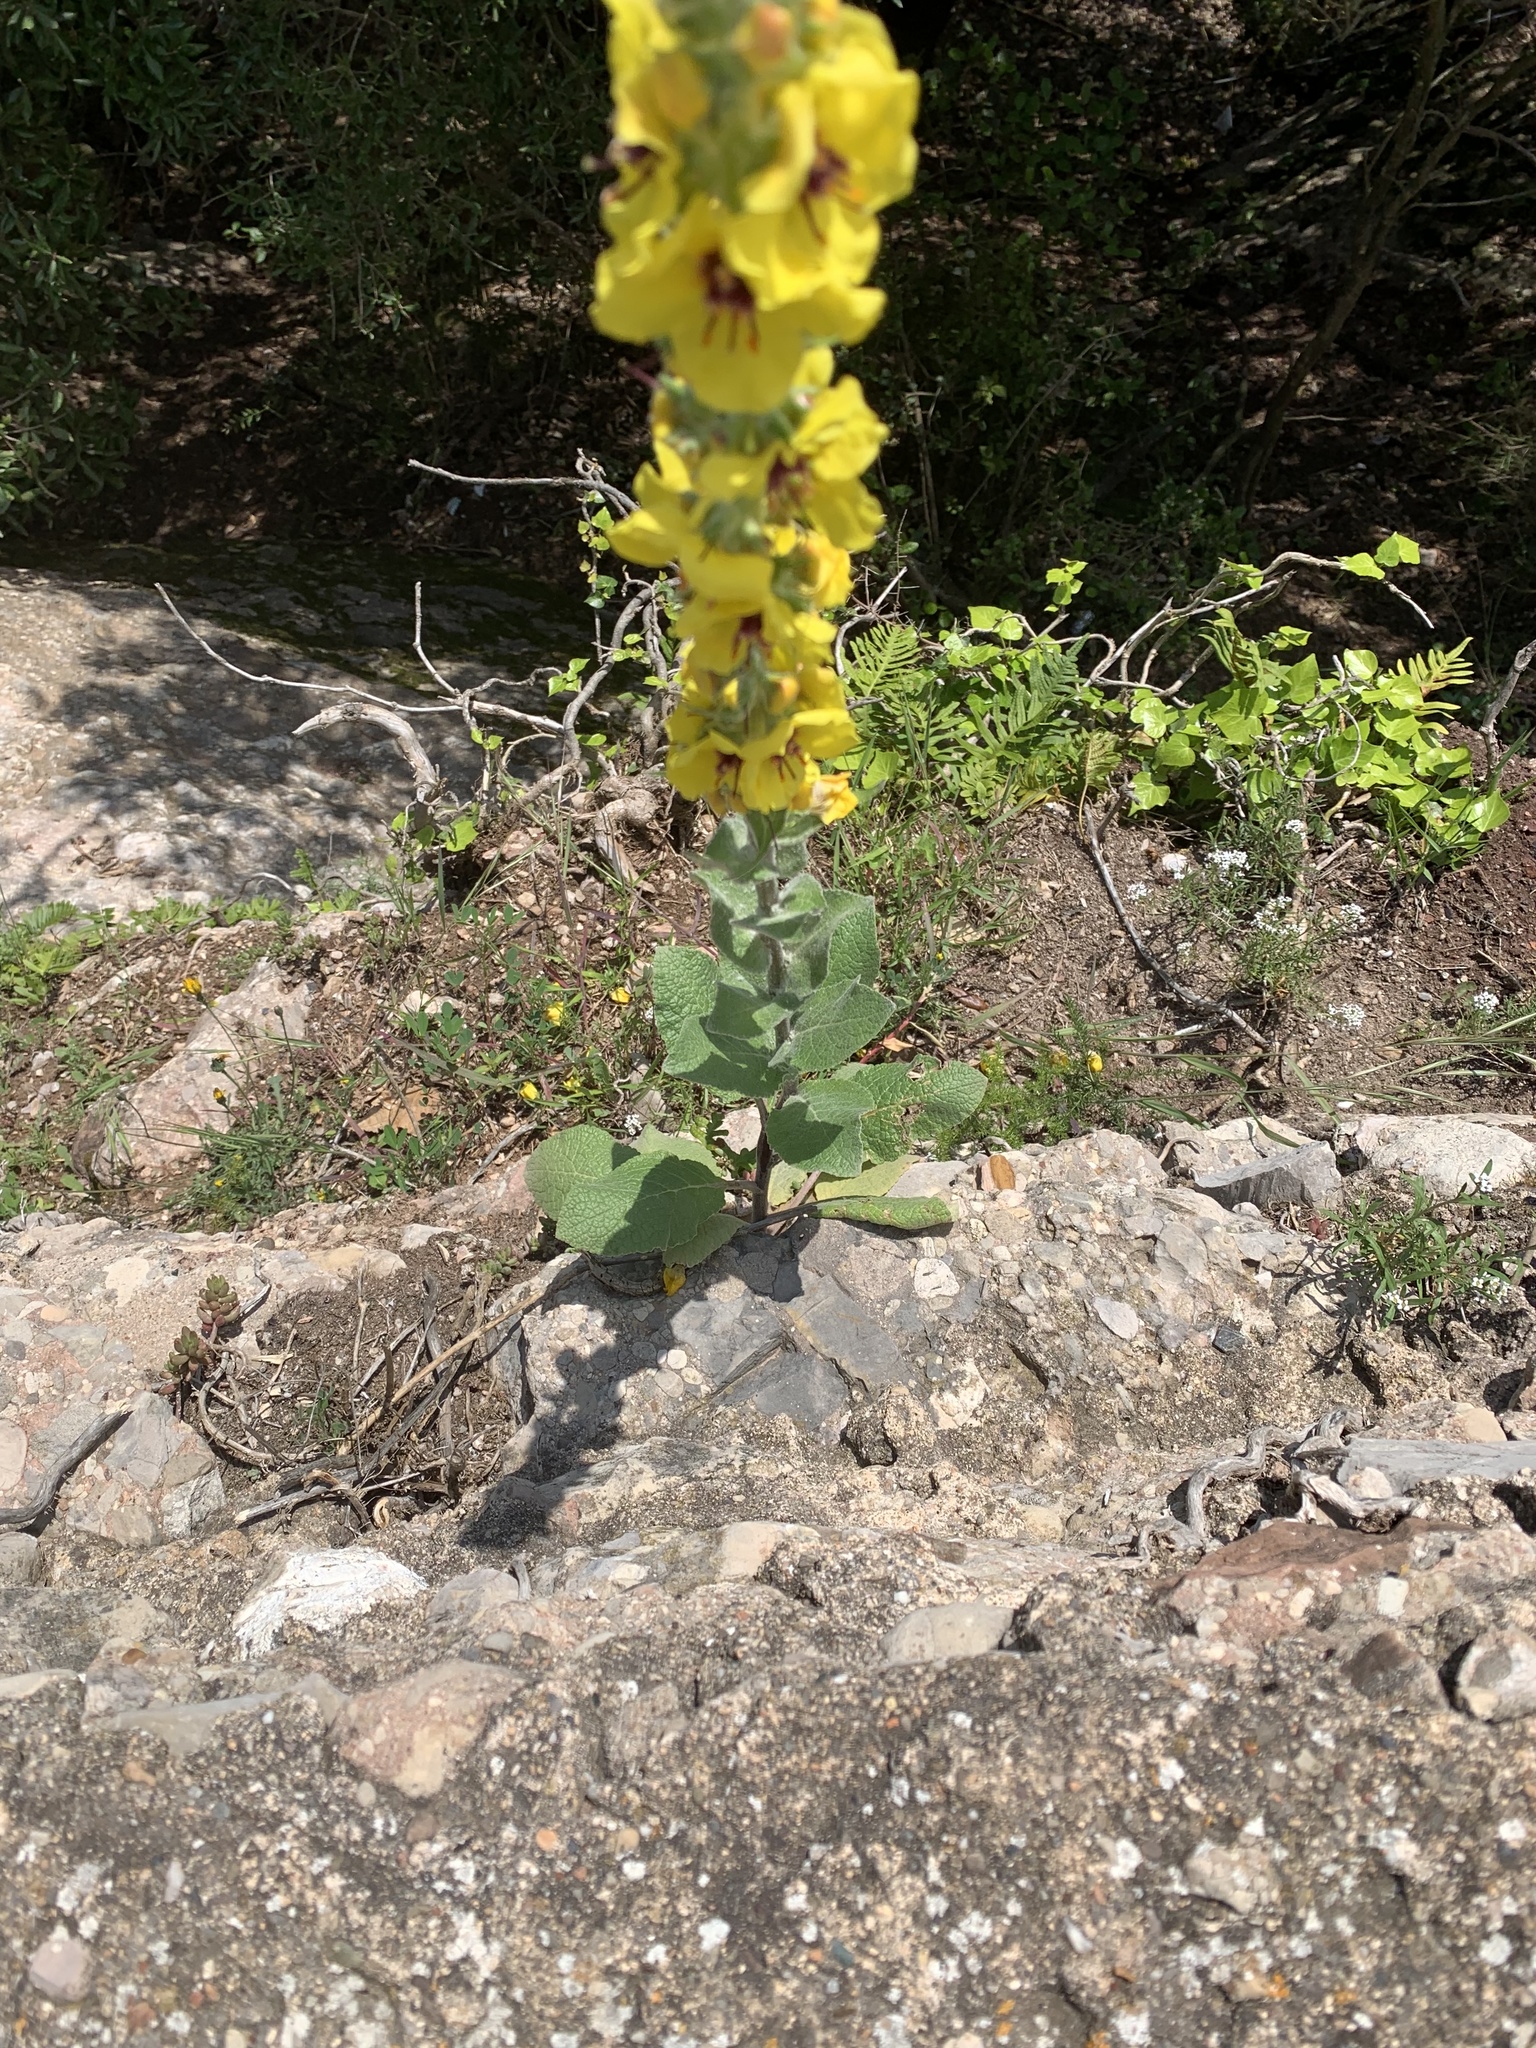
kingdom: Plantae
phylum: Tracheophyta
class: Magnoliopsida
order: Lamiales
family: Scrophulariaceae
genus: Verbascum
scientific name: Verbascum boerhavii
